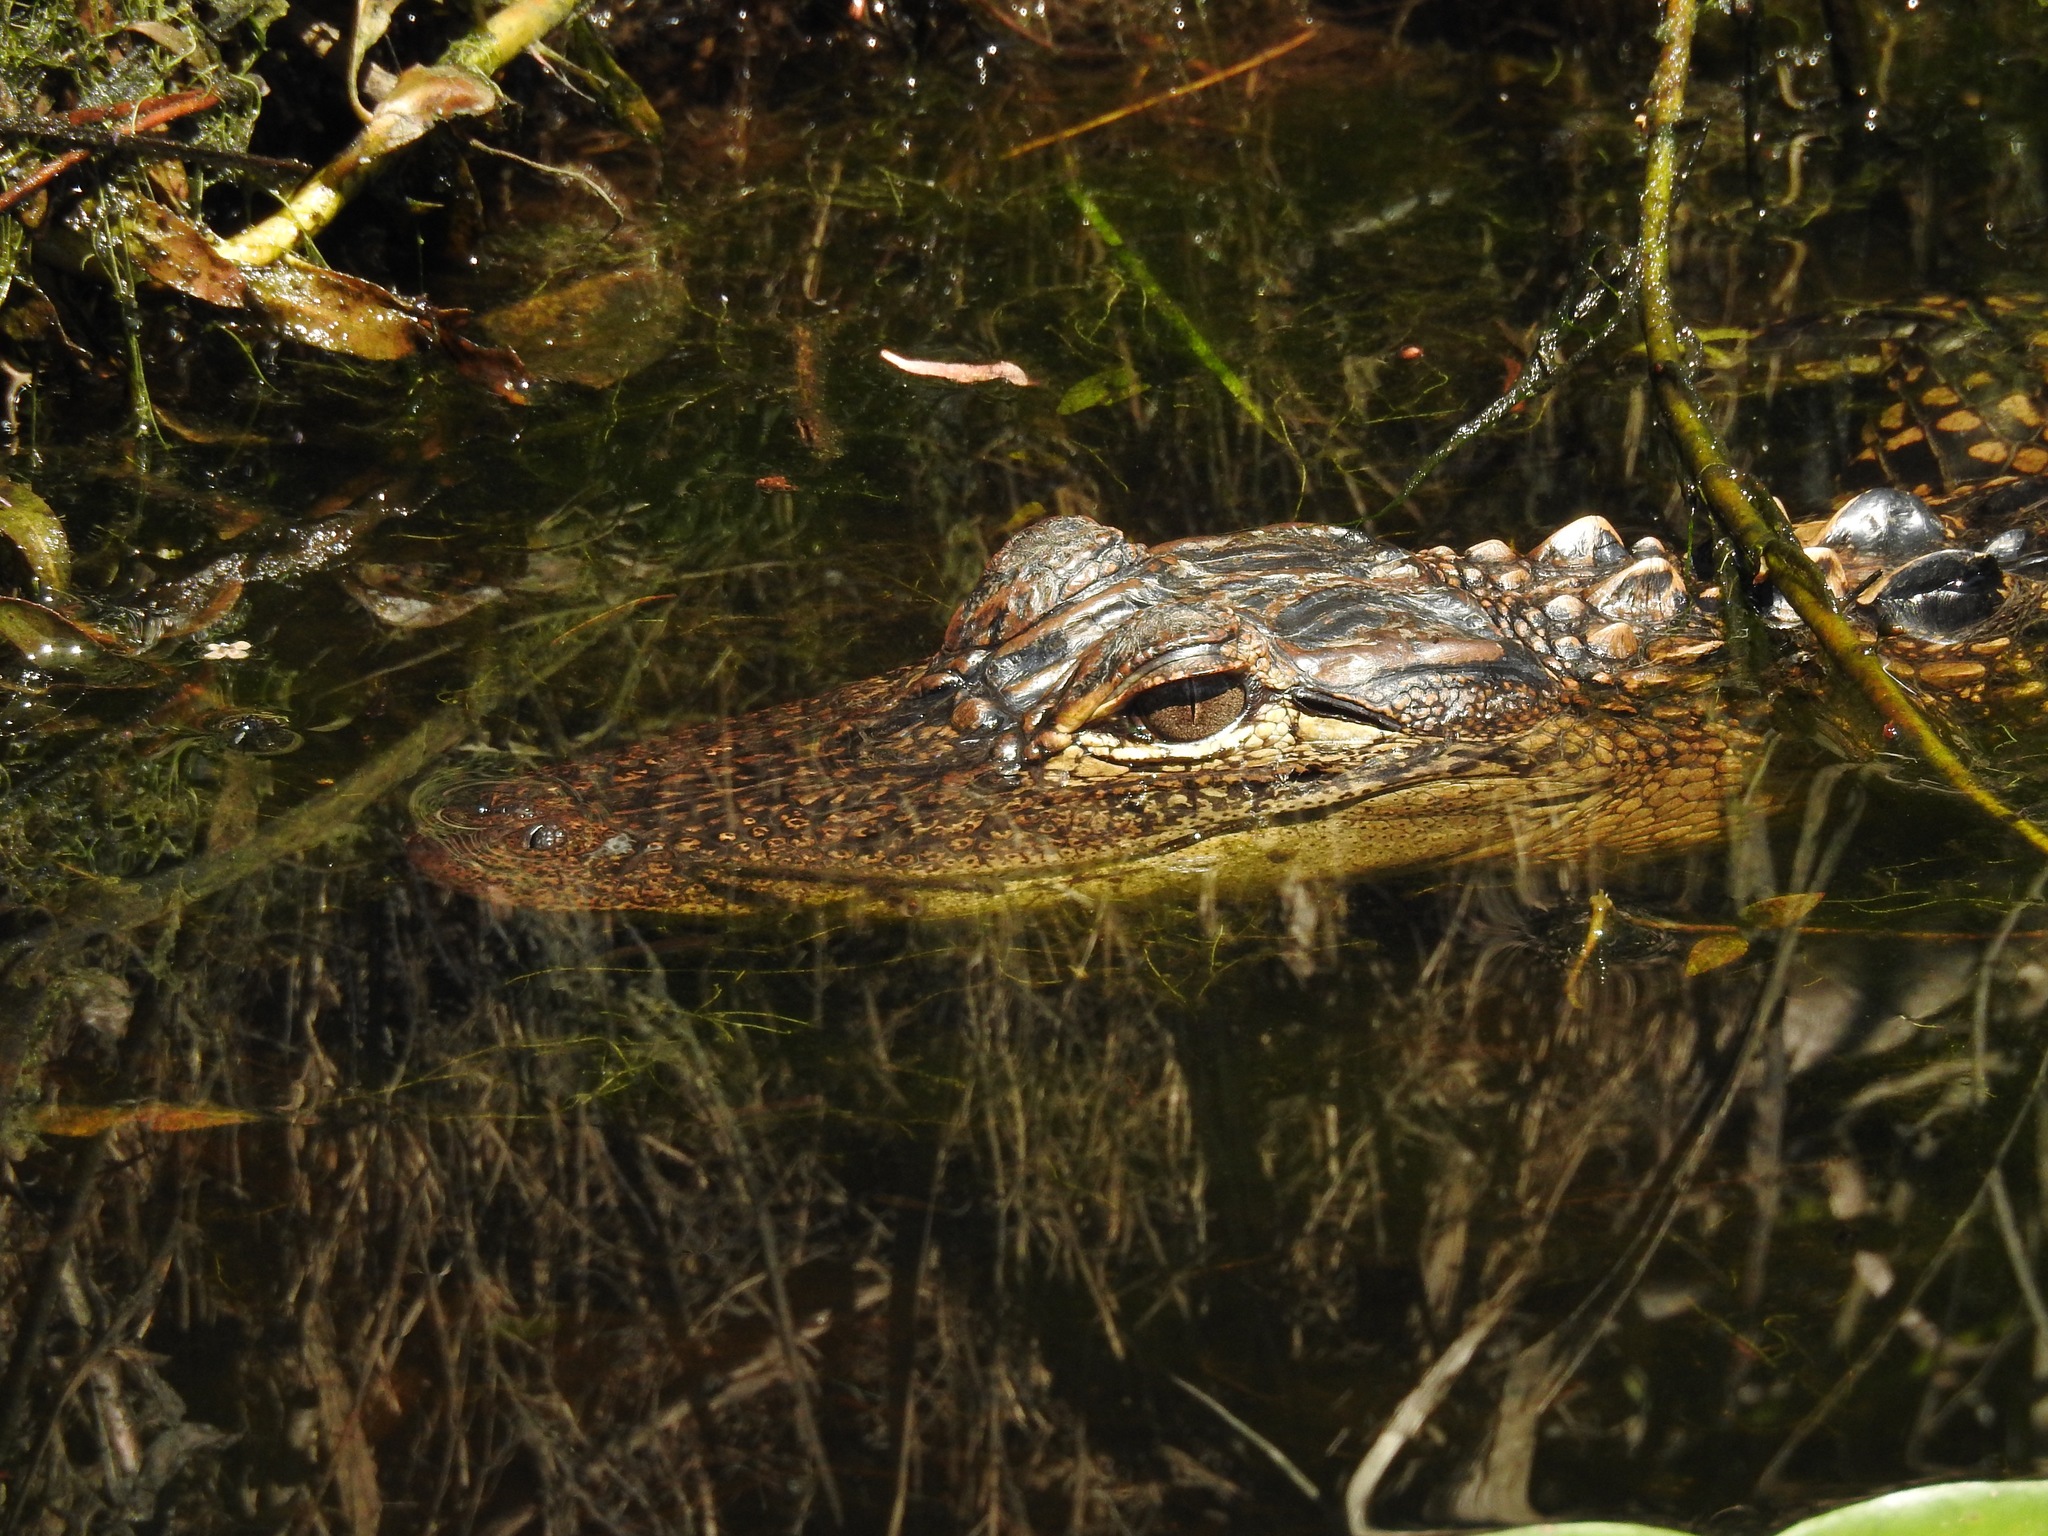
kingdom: Animalia
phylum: Chordata
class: Crocodylia
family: Alligatoridae
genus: Alligator
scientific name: Alligator mississippiensis
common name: American alligator
